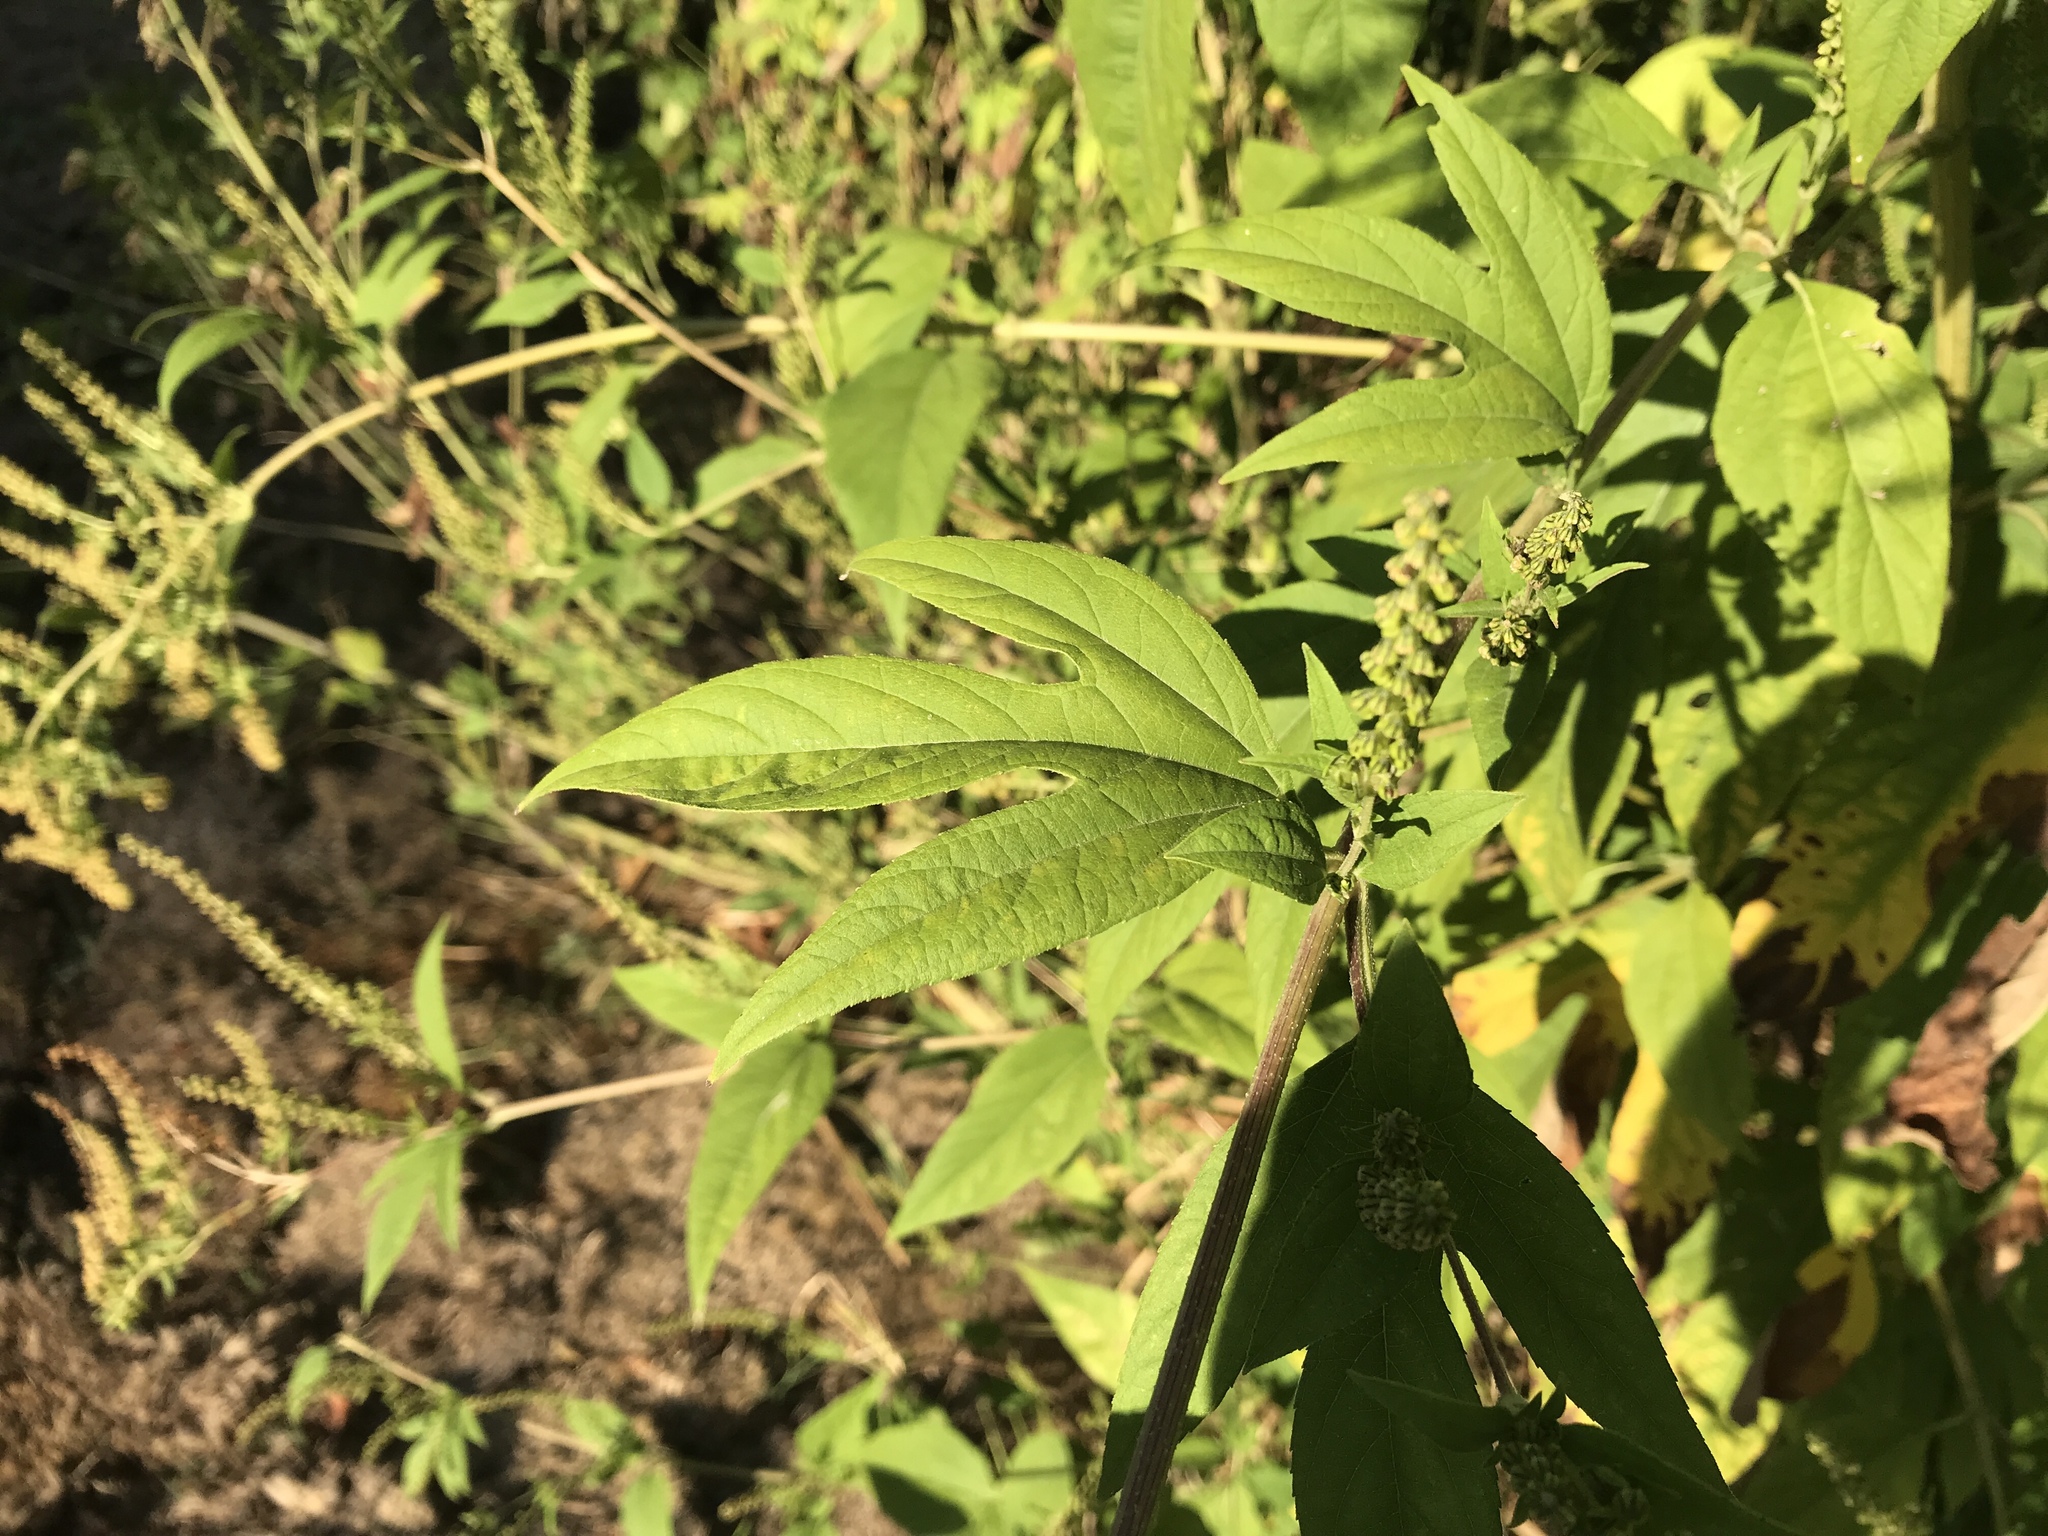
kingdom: Plantae
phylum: Tracheophyta
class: Magnoliopsida
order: Asterales
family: Asteraceae
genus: Ambrosia
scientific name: Ambrosia trifida
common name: Giant ragweed
